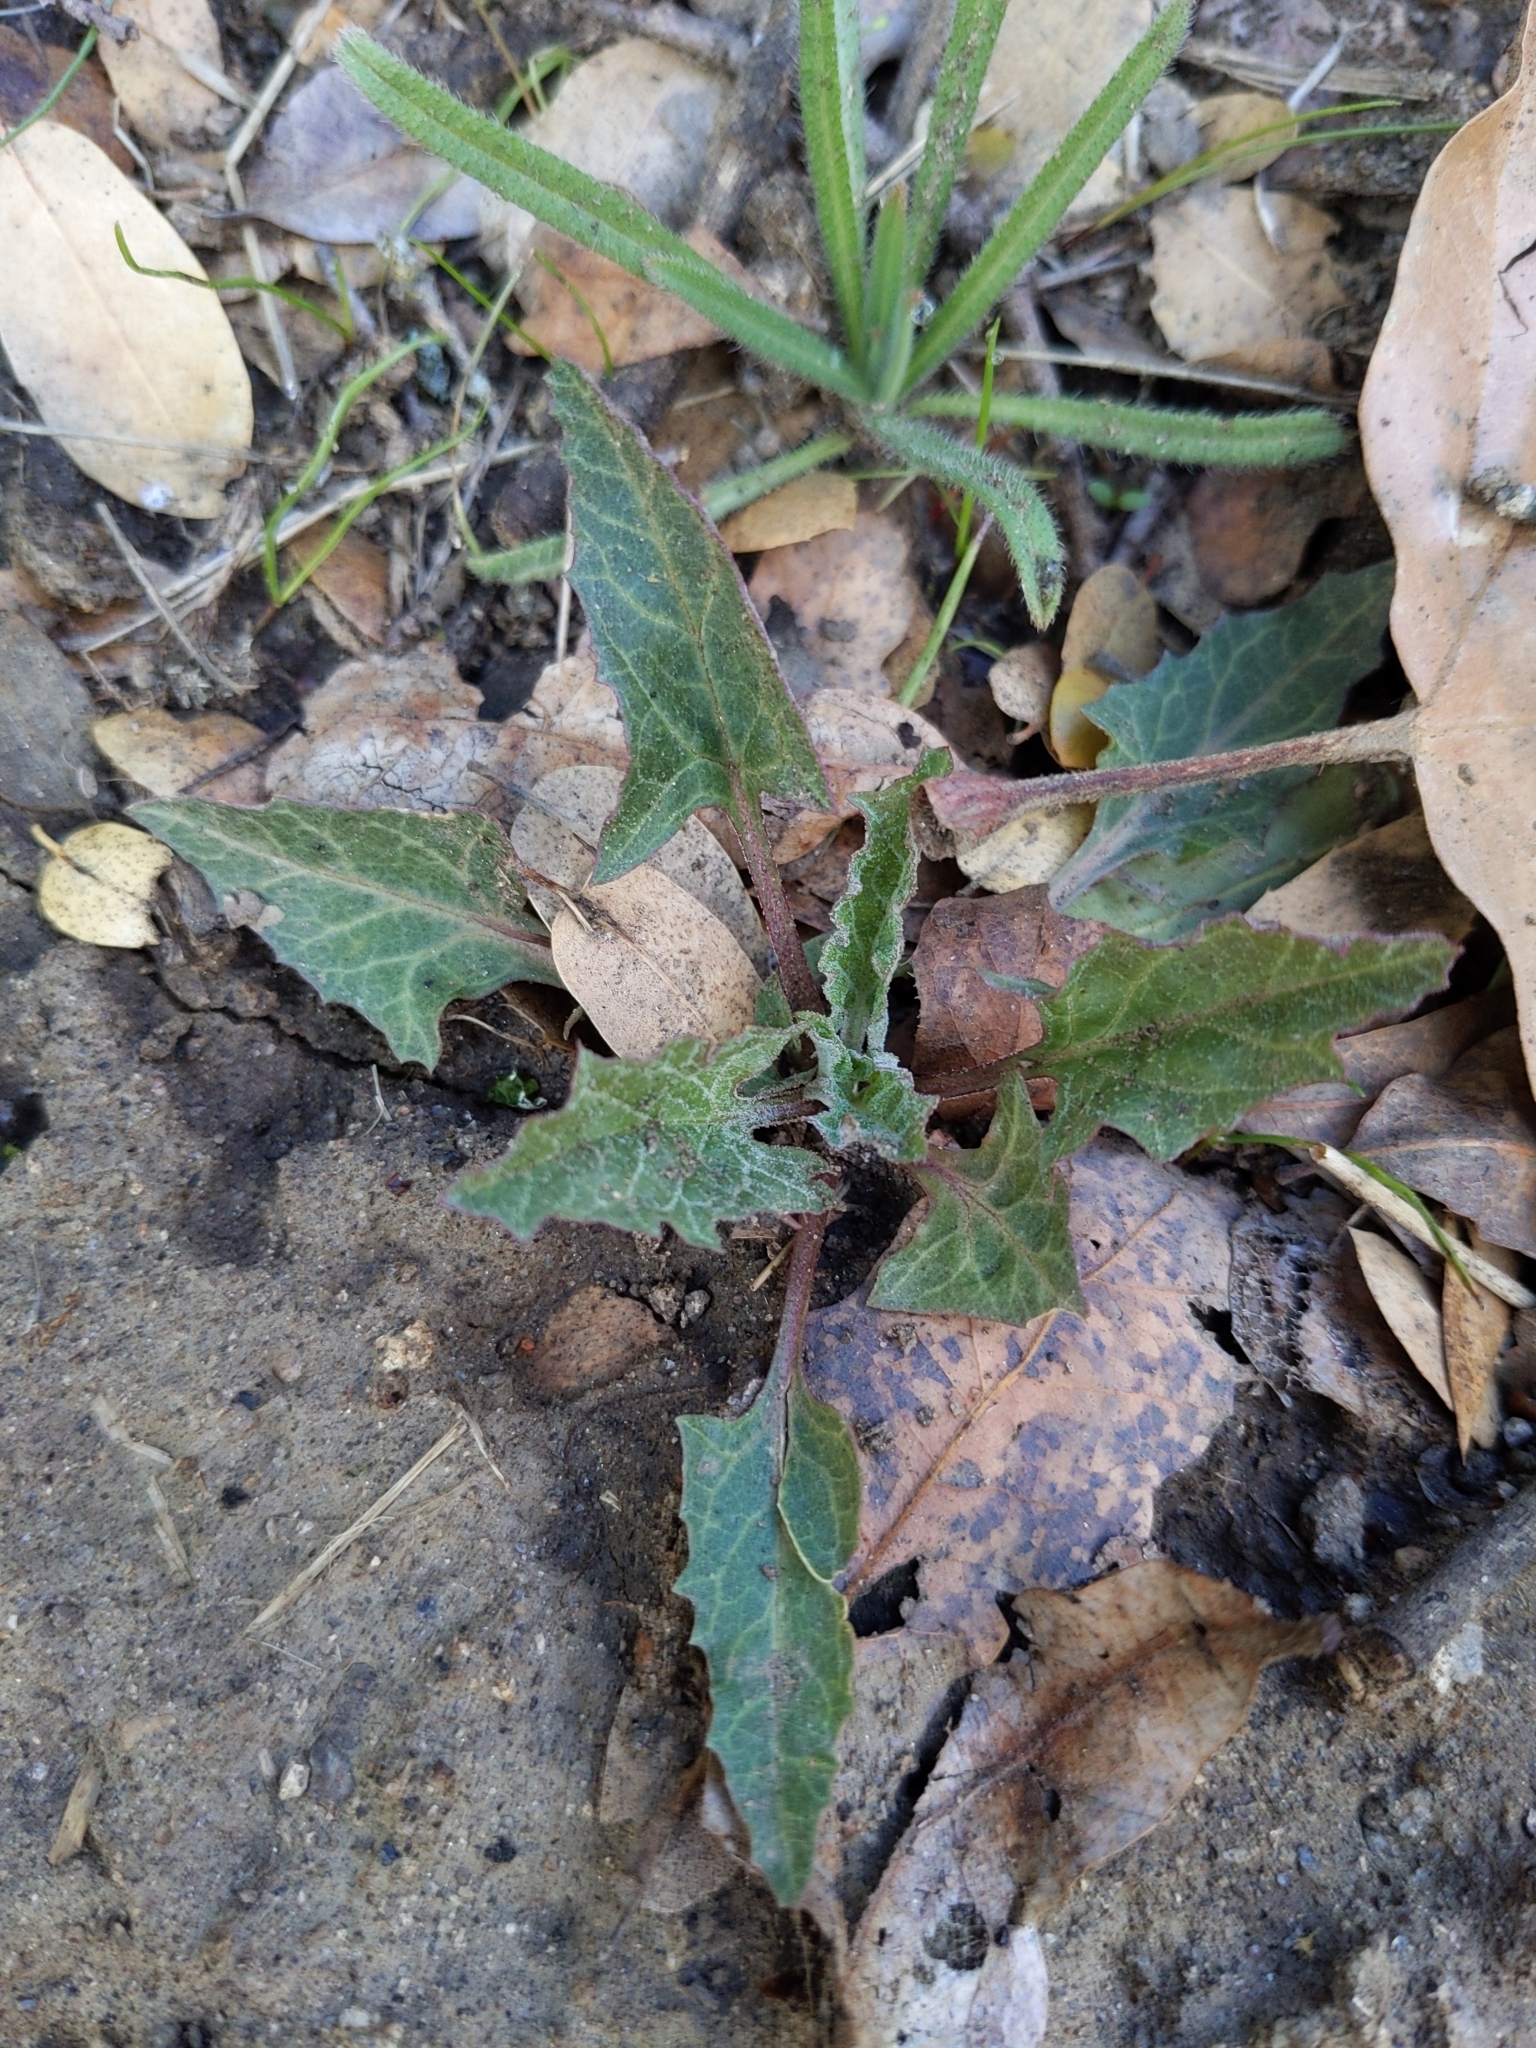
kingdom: Plantae
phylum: Tracheophyta
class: Magnoliopsida
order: Caryophyllales
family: Amaranthaceae
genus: Blitum
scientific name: Blitum californicum
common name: California goosefoot
